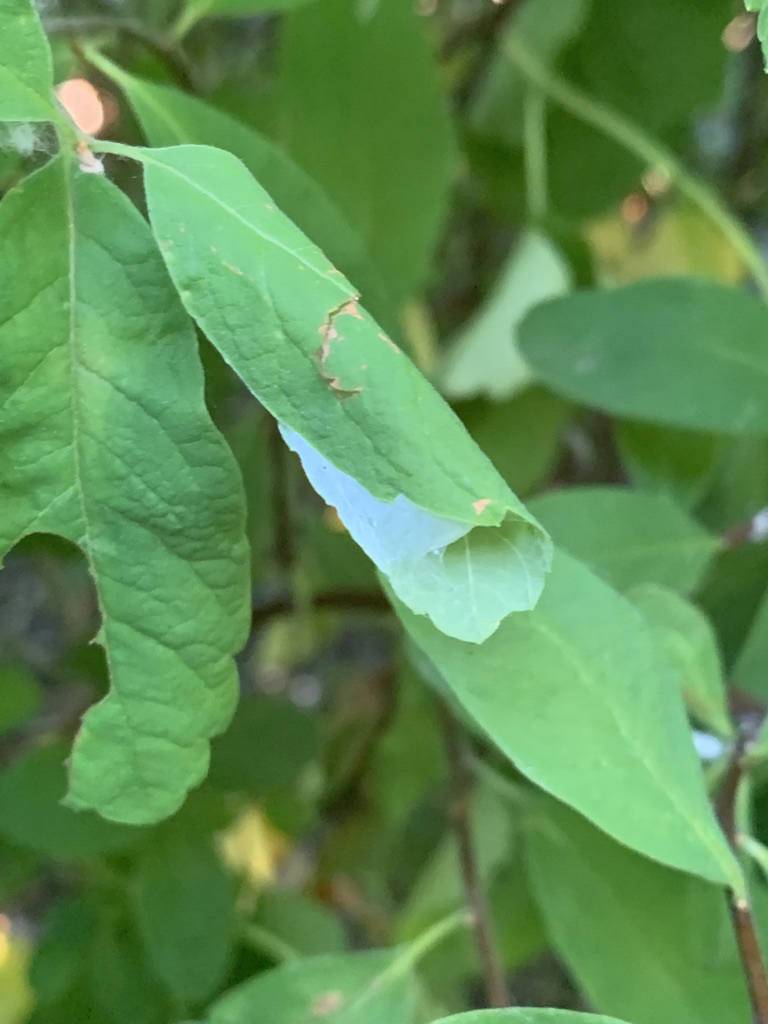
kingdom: Plantae
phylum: Tracheophyta
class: Magnoliopsida
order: Rosales
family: Rosaceae
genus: Spiraea
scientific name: Spiraea douglasii
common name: Steeplebush
